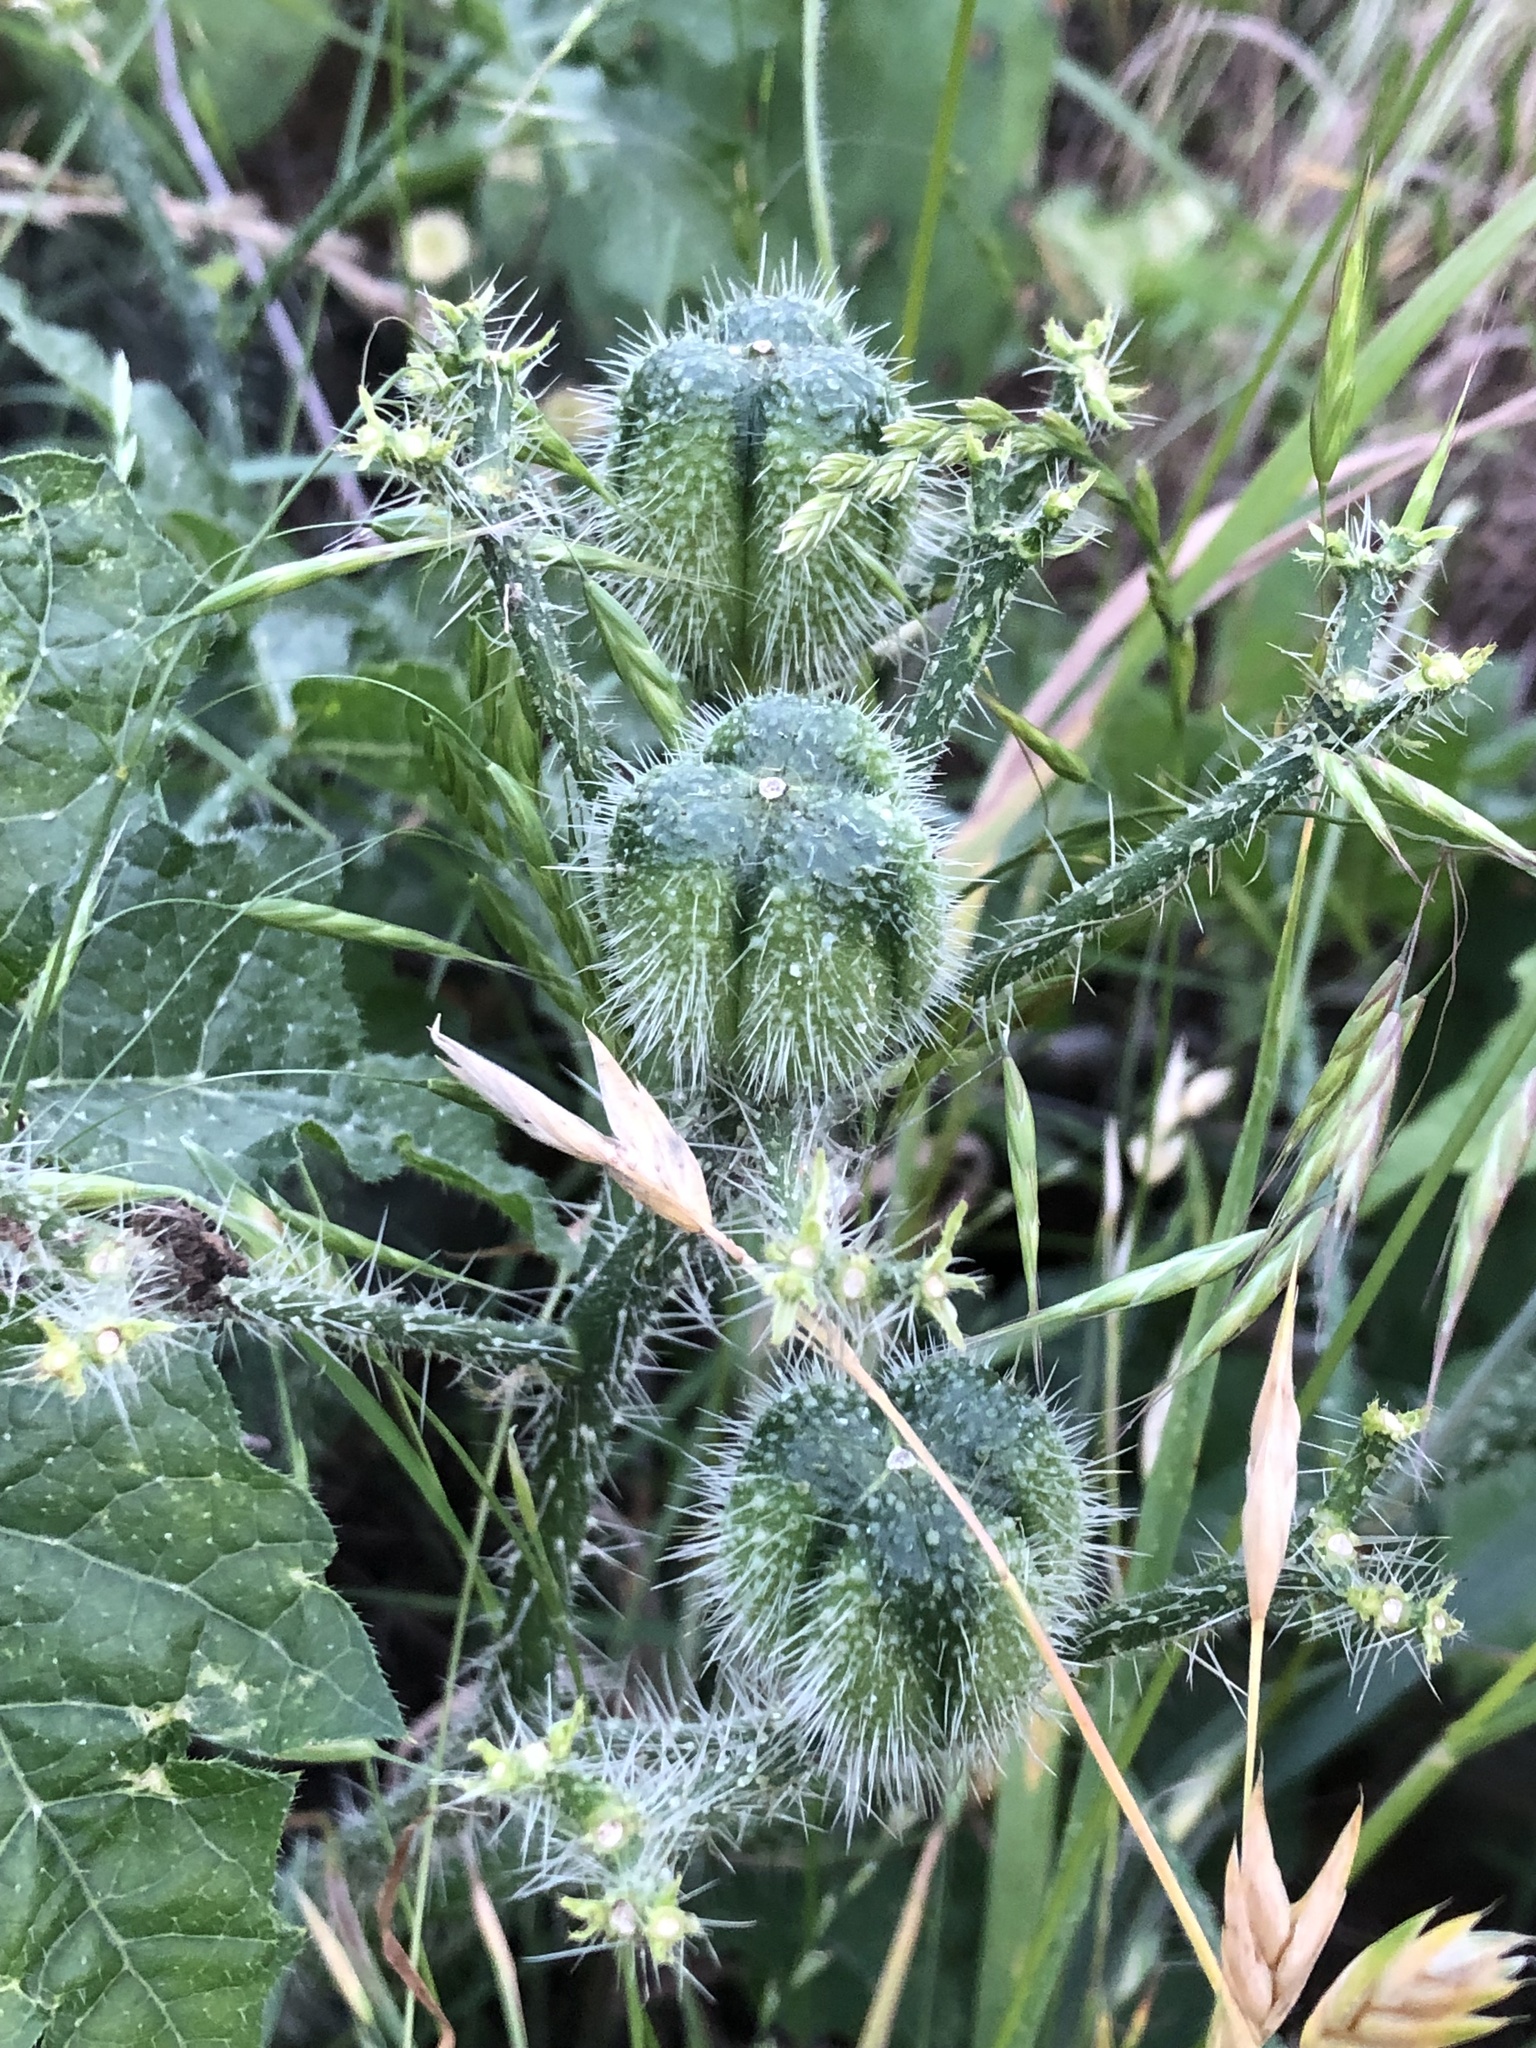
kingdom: Plantae
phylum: Tracheophyta
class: Magnoliopsida
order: Malpighiales
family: Euphorbiaceae
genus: Cnidoscolus
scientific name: Cnidoscolus texanus
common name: Texas bull-nettle
